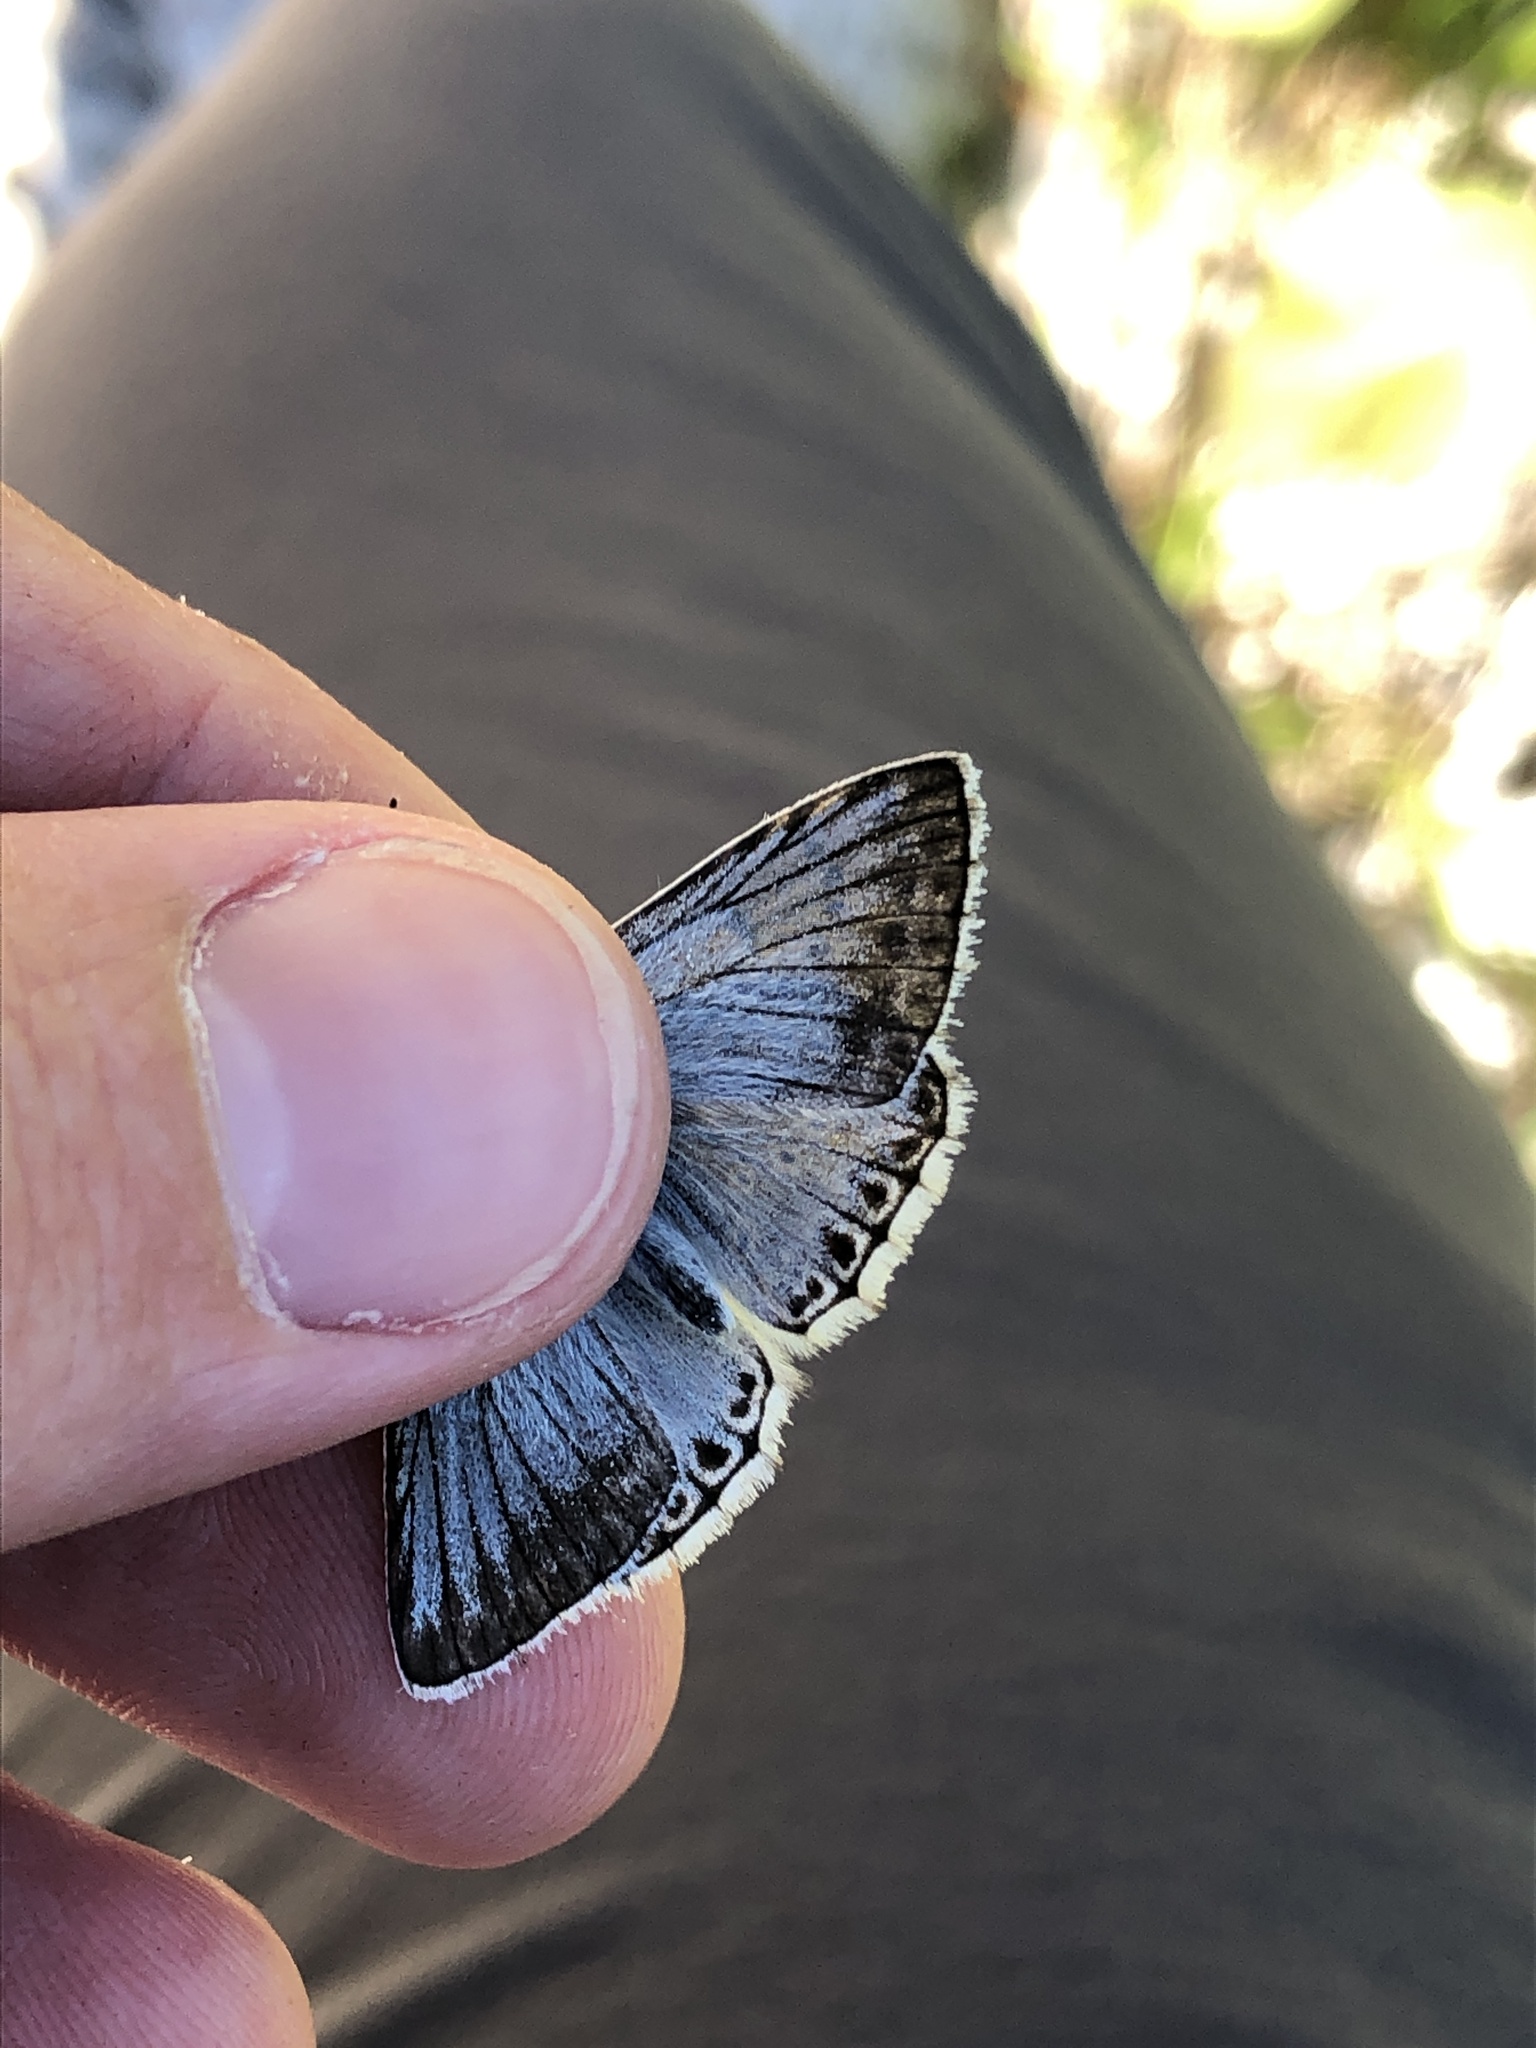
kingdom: Animalia
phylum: Arthropoda
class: Insecta
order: Lepidoptera
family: Lycaenidae
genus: Lysandra
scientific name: Lysandra coridon
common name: Chalkhill blue
